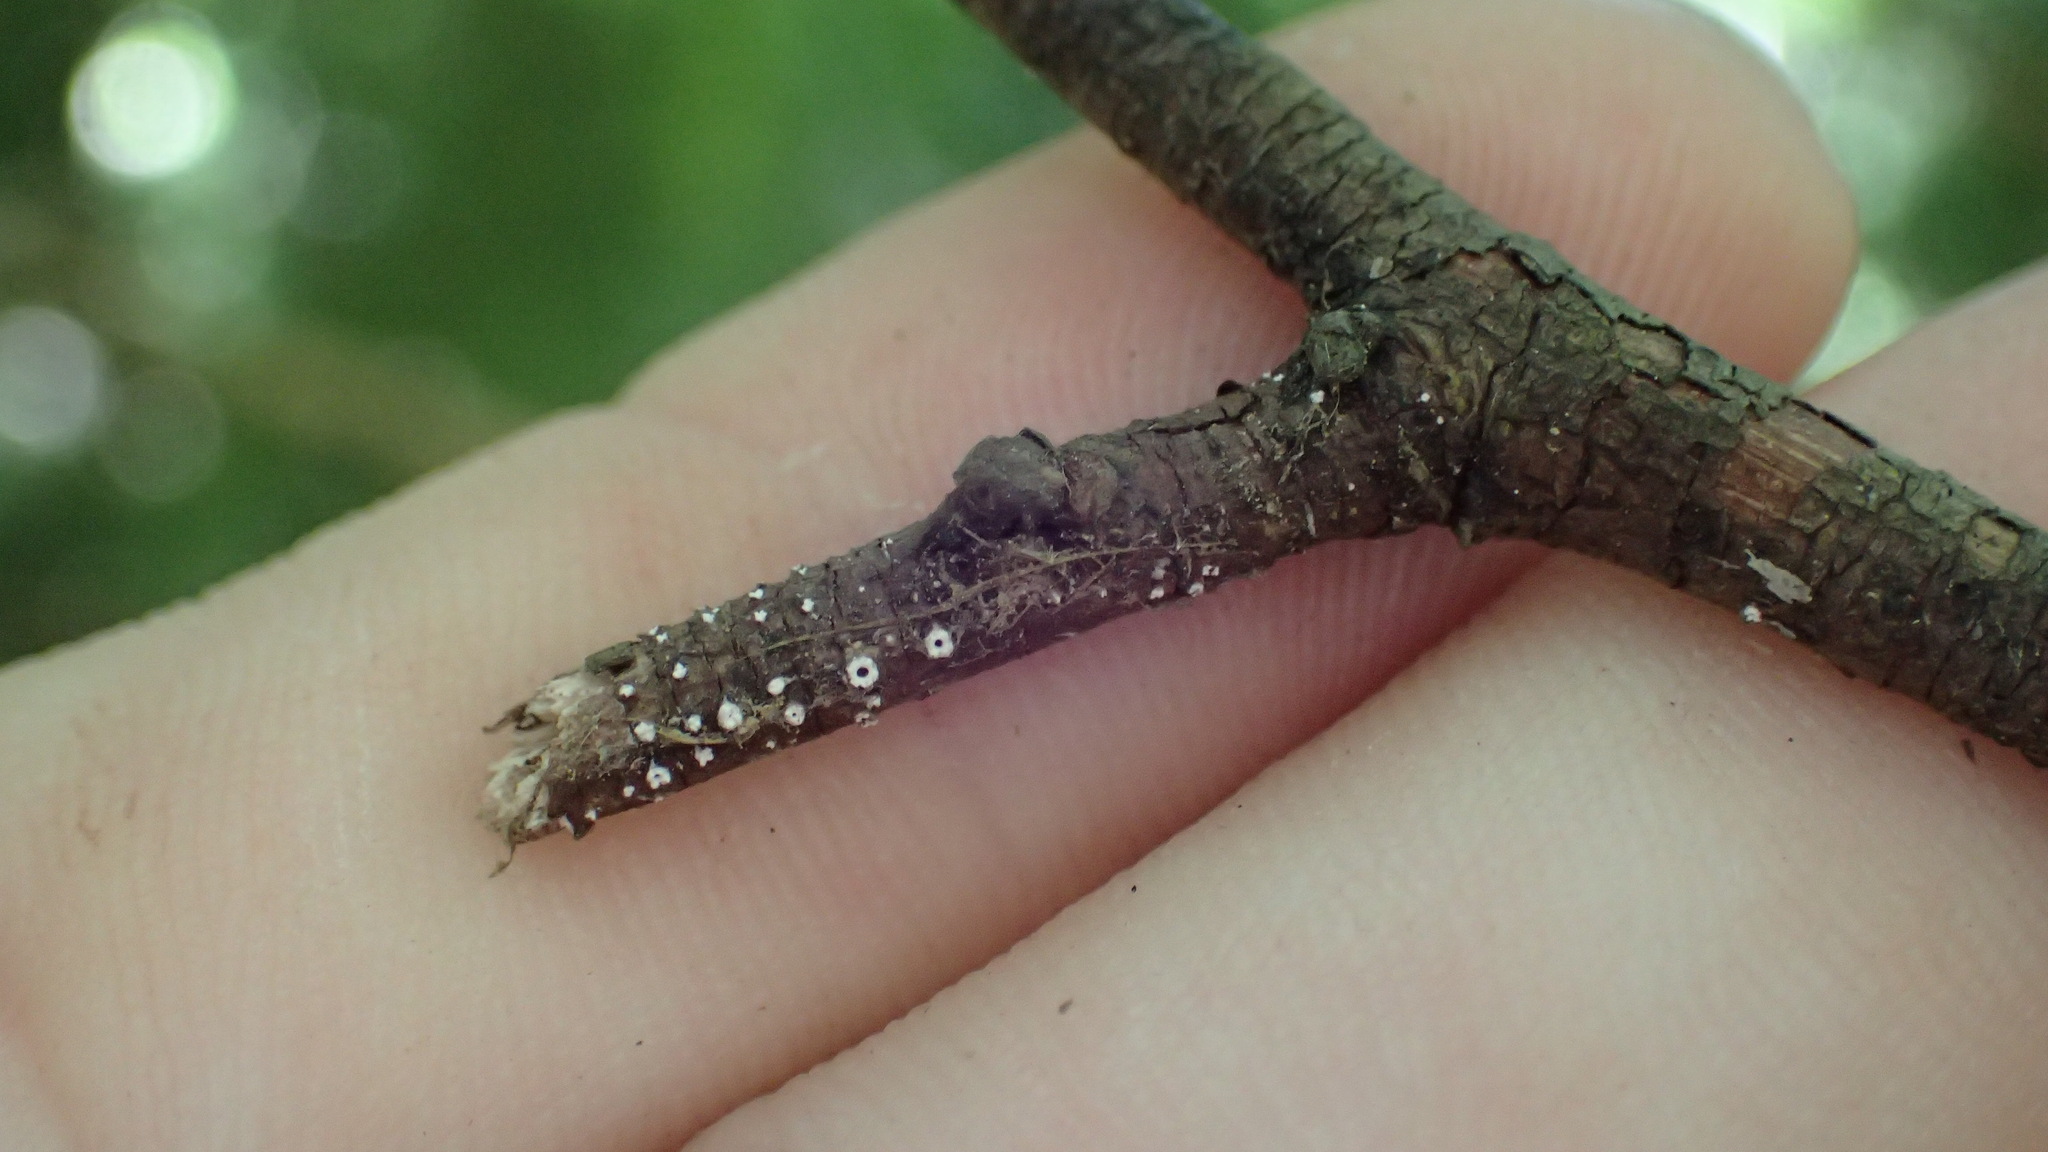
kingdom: Fungi
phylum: Ascomycota
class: Lecanoromycetes
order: Ostropales
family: Stictidaceae
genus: Stictis
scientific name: Stictis radiata
